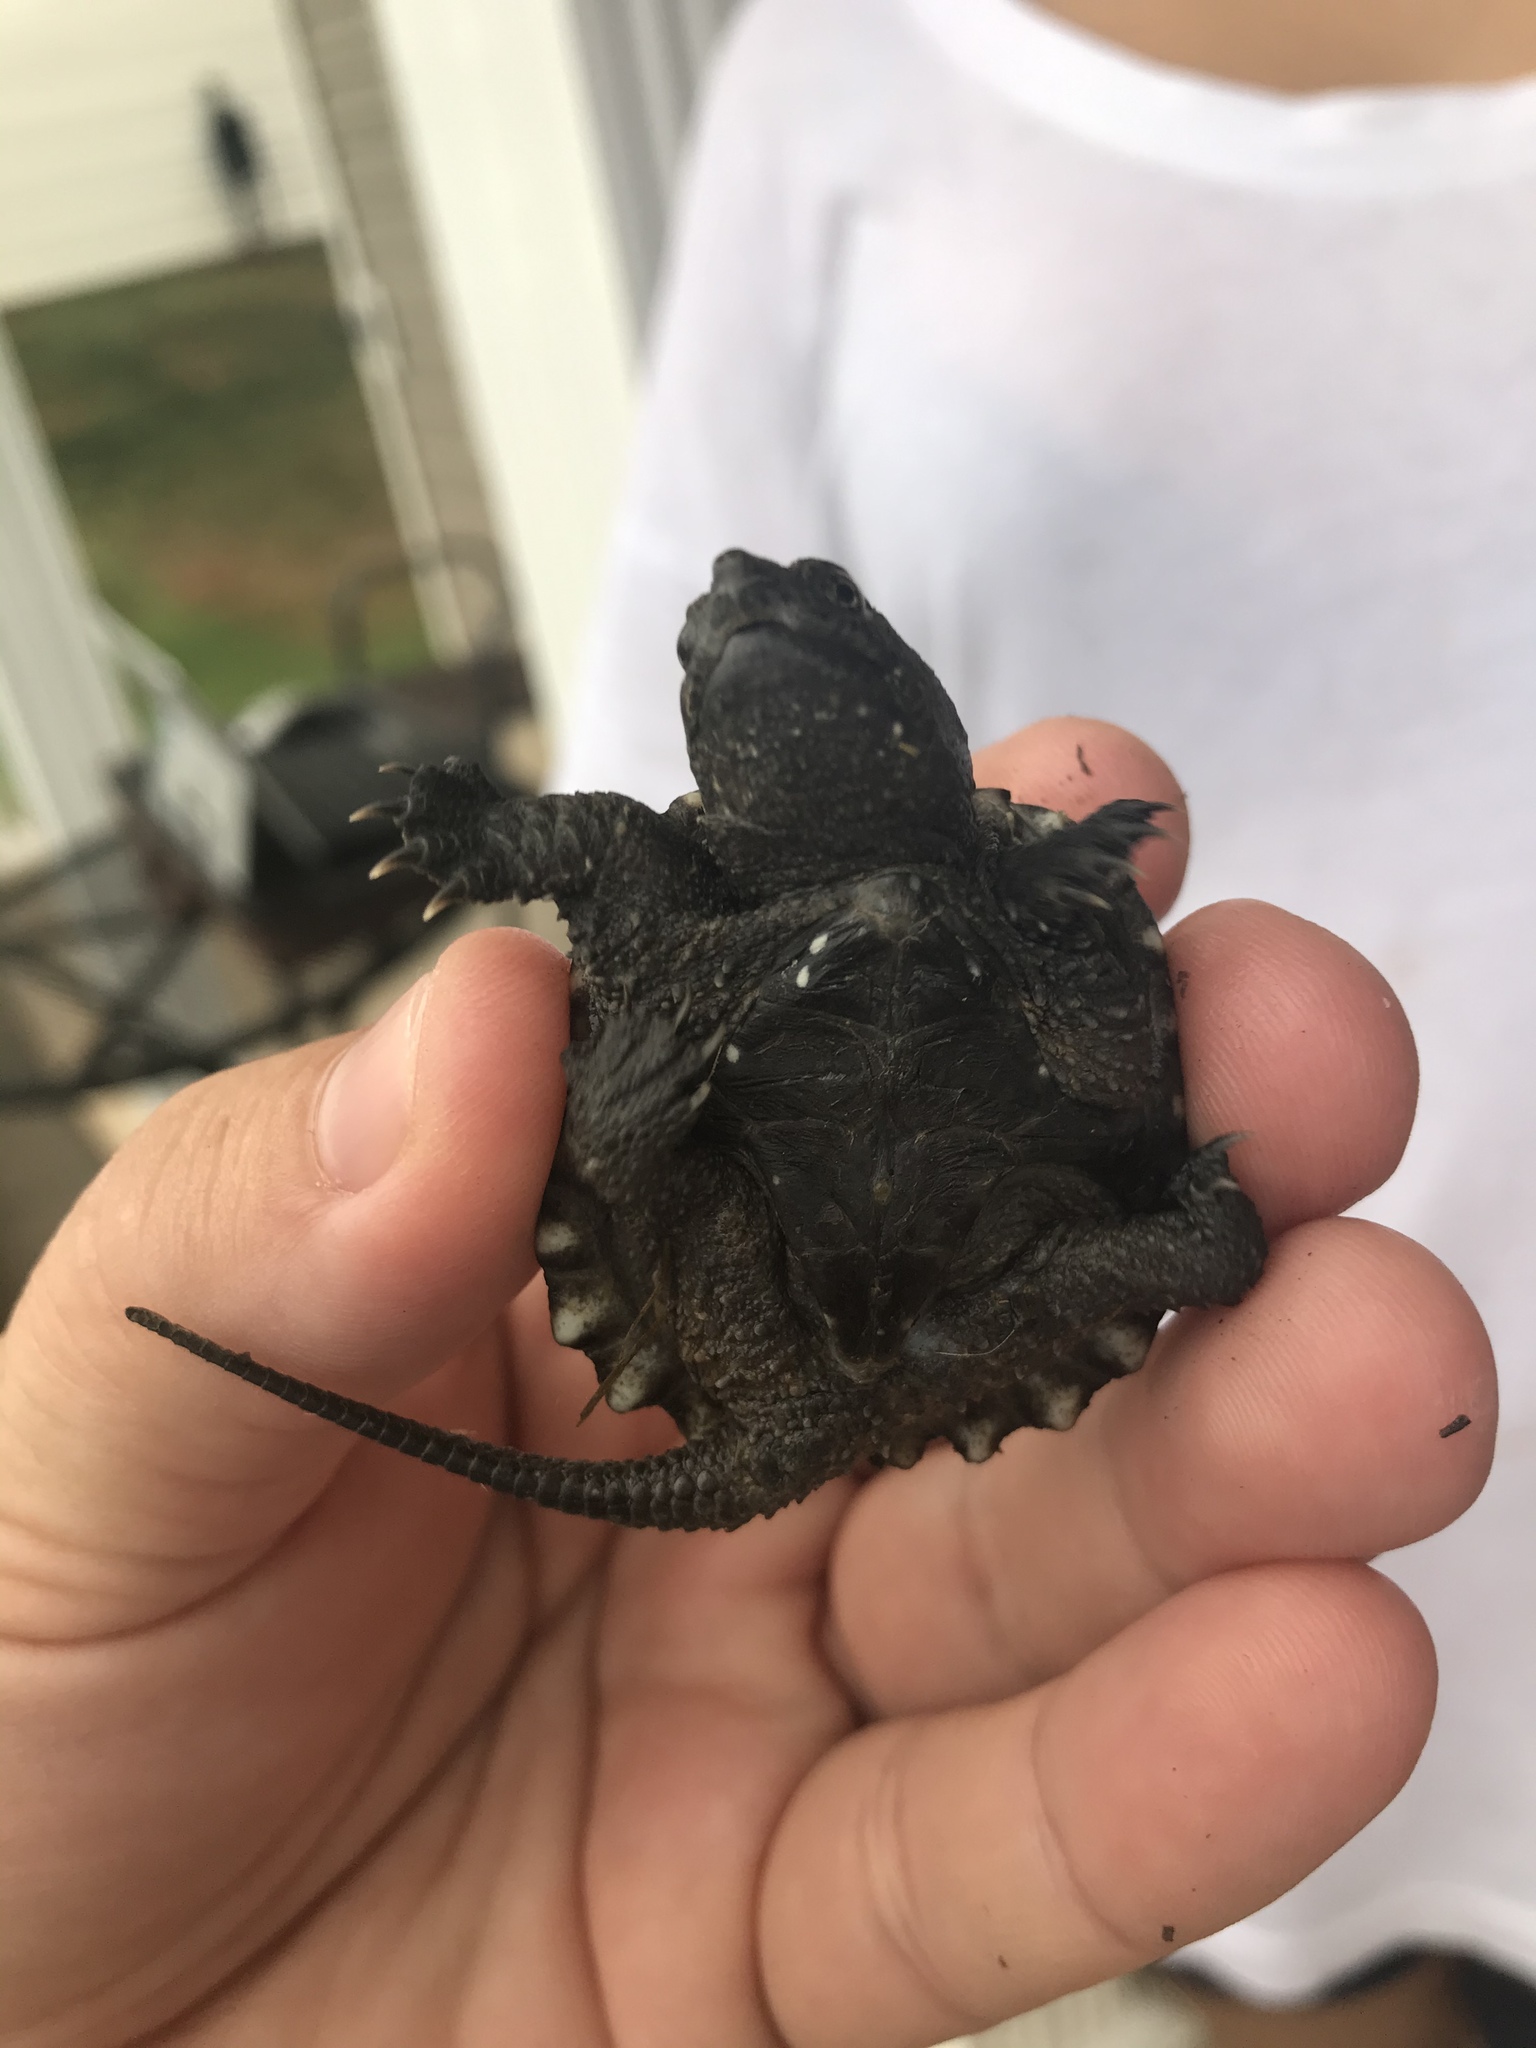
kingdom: Animalia
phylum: Chordata
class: Testudines
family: Chelydridae
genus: Chelydra
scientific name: Chelydra serpentina
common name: Common snapping turtle
